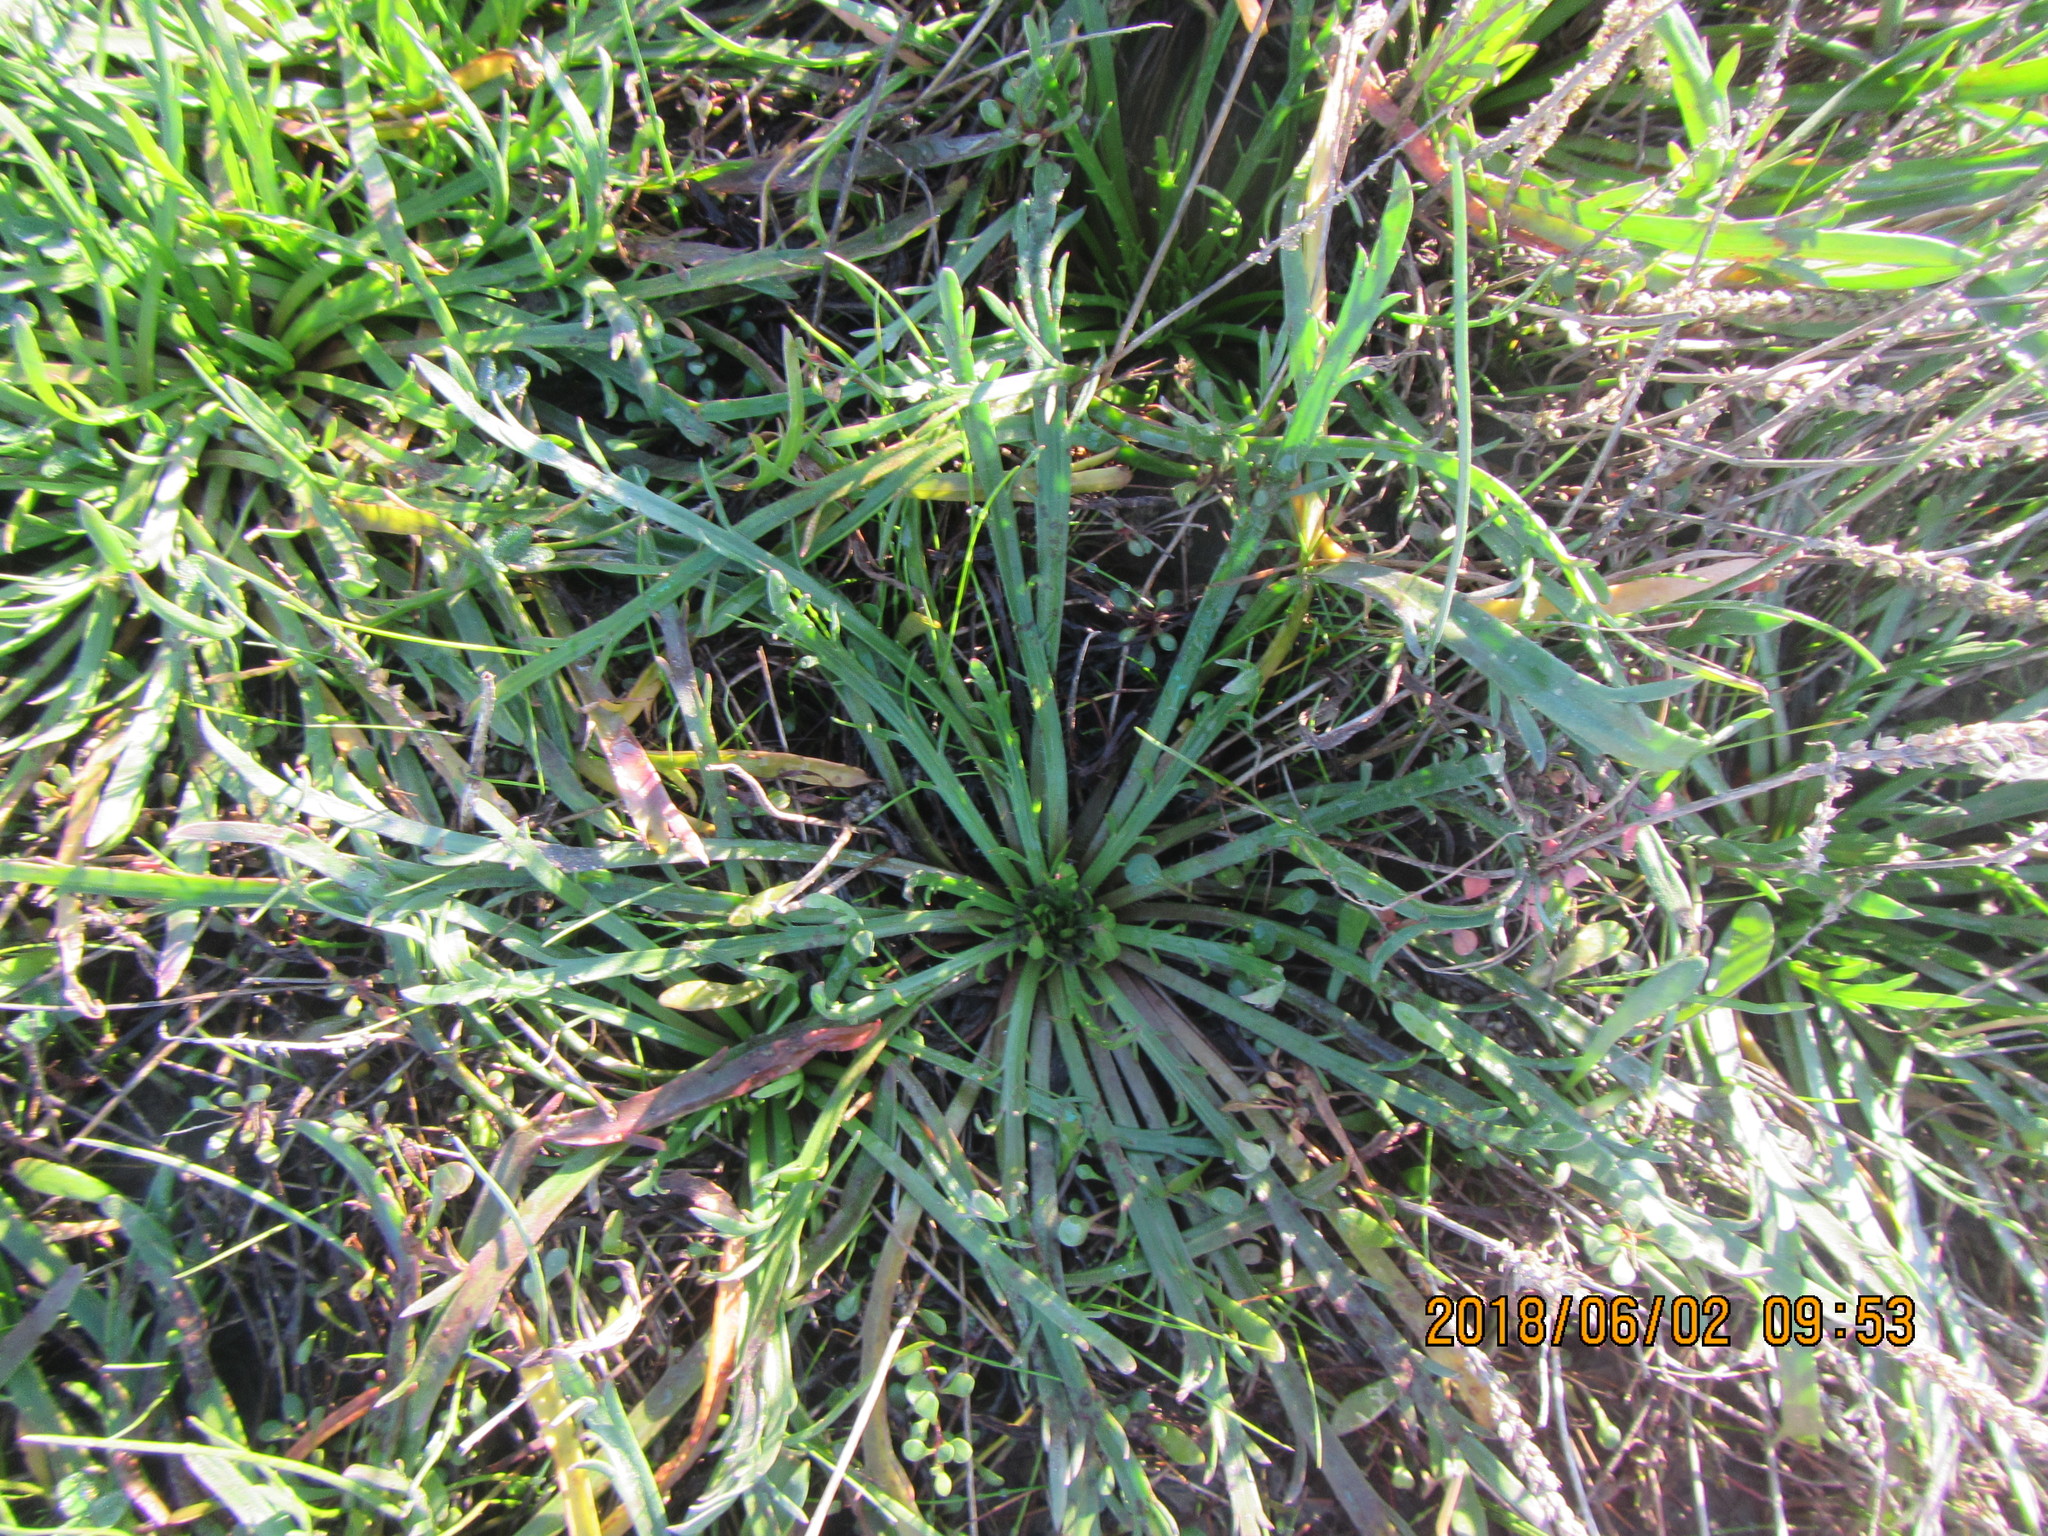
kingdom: Plantae
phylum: Tracheophyta
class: Magnoliopsida
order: Lamiales
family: Plantaginaceae
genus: Plantago
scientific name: Plantago coronopus
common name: Buck's-horn plantain
